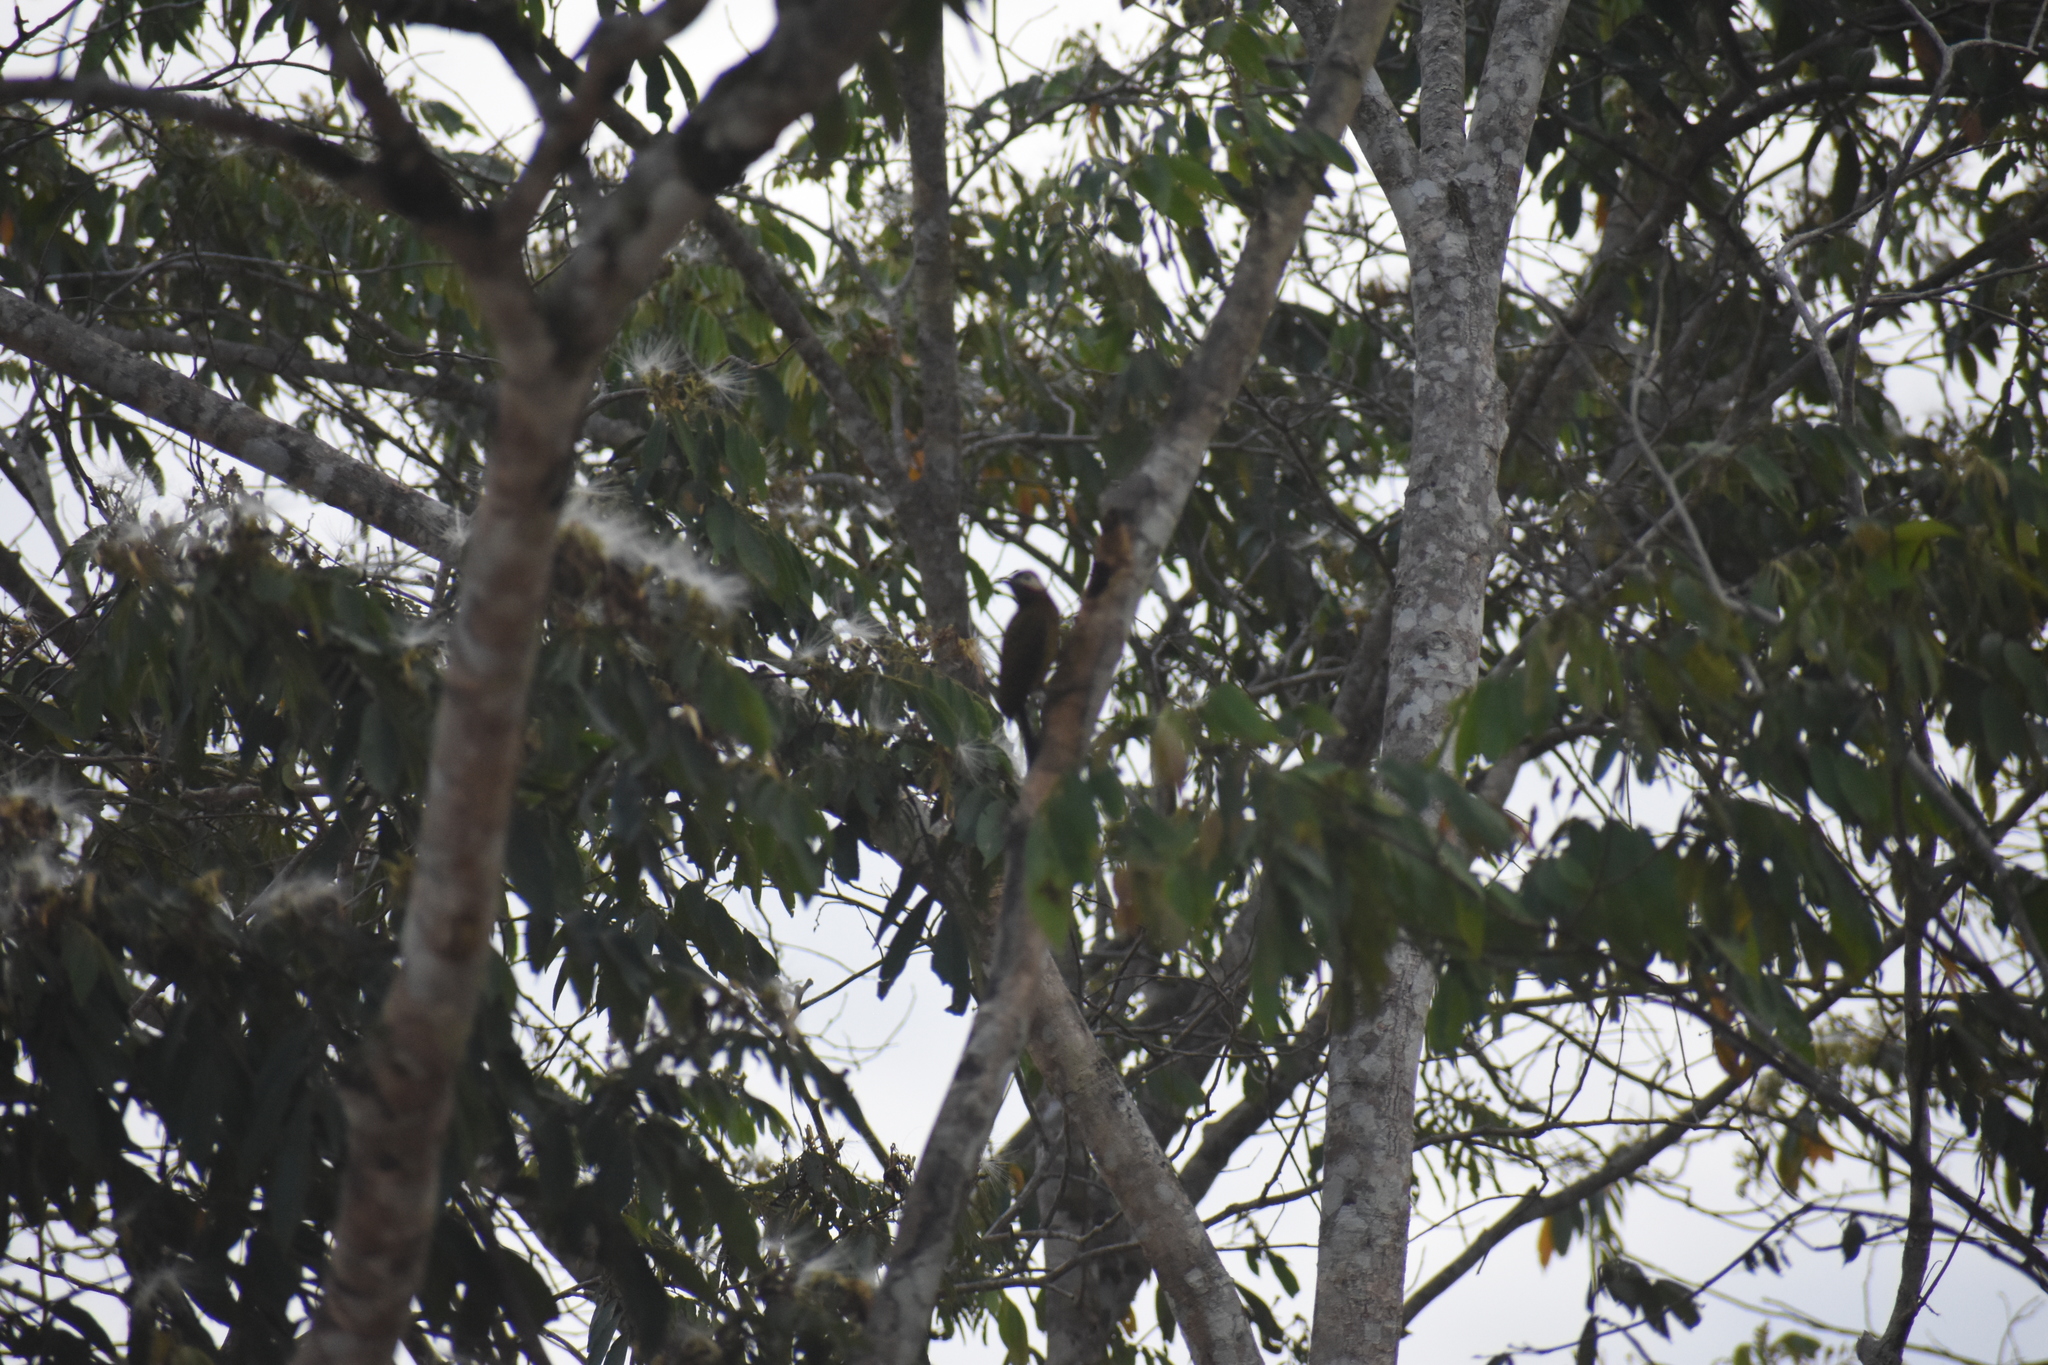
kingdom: Animalia
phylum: Chordata
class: Aves
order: Piciformes
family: Picidae
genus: Colaptes
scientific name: Colaptes punctigula
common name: Spot-breasted woodpecker
